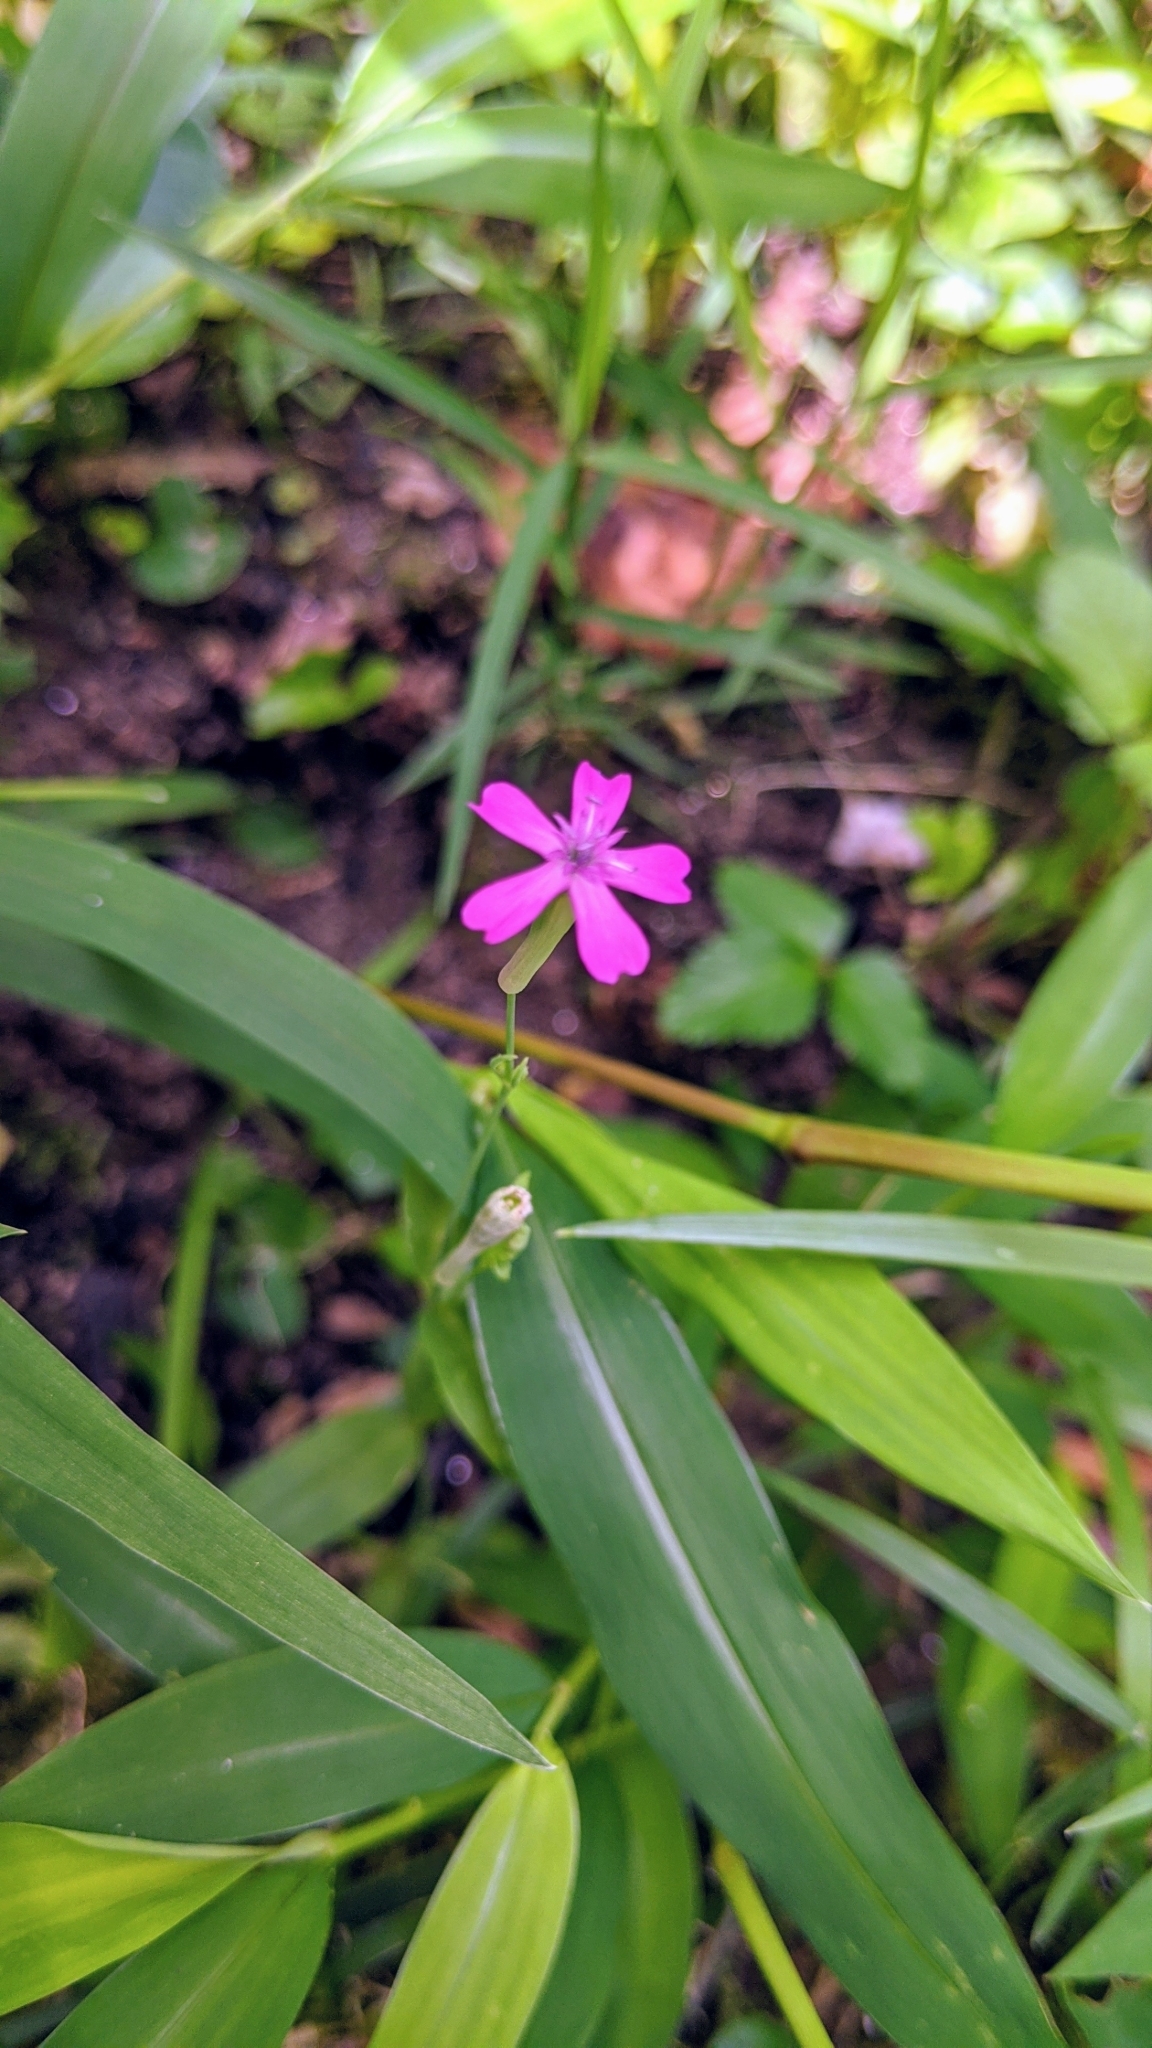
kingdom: Plantae
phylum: Tracheophyta
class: Magnoliopsida
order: Caryophyllales
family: Caryophyllaceae
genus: Atocion
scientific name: Atocion armeria
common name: Sweet william catchfly
